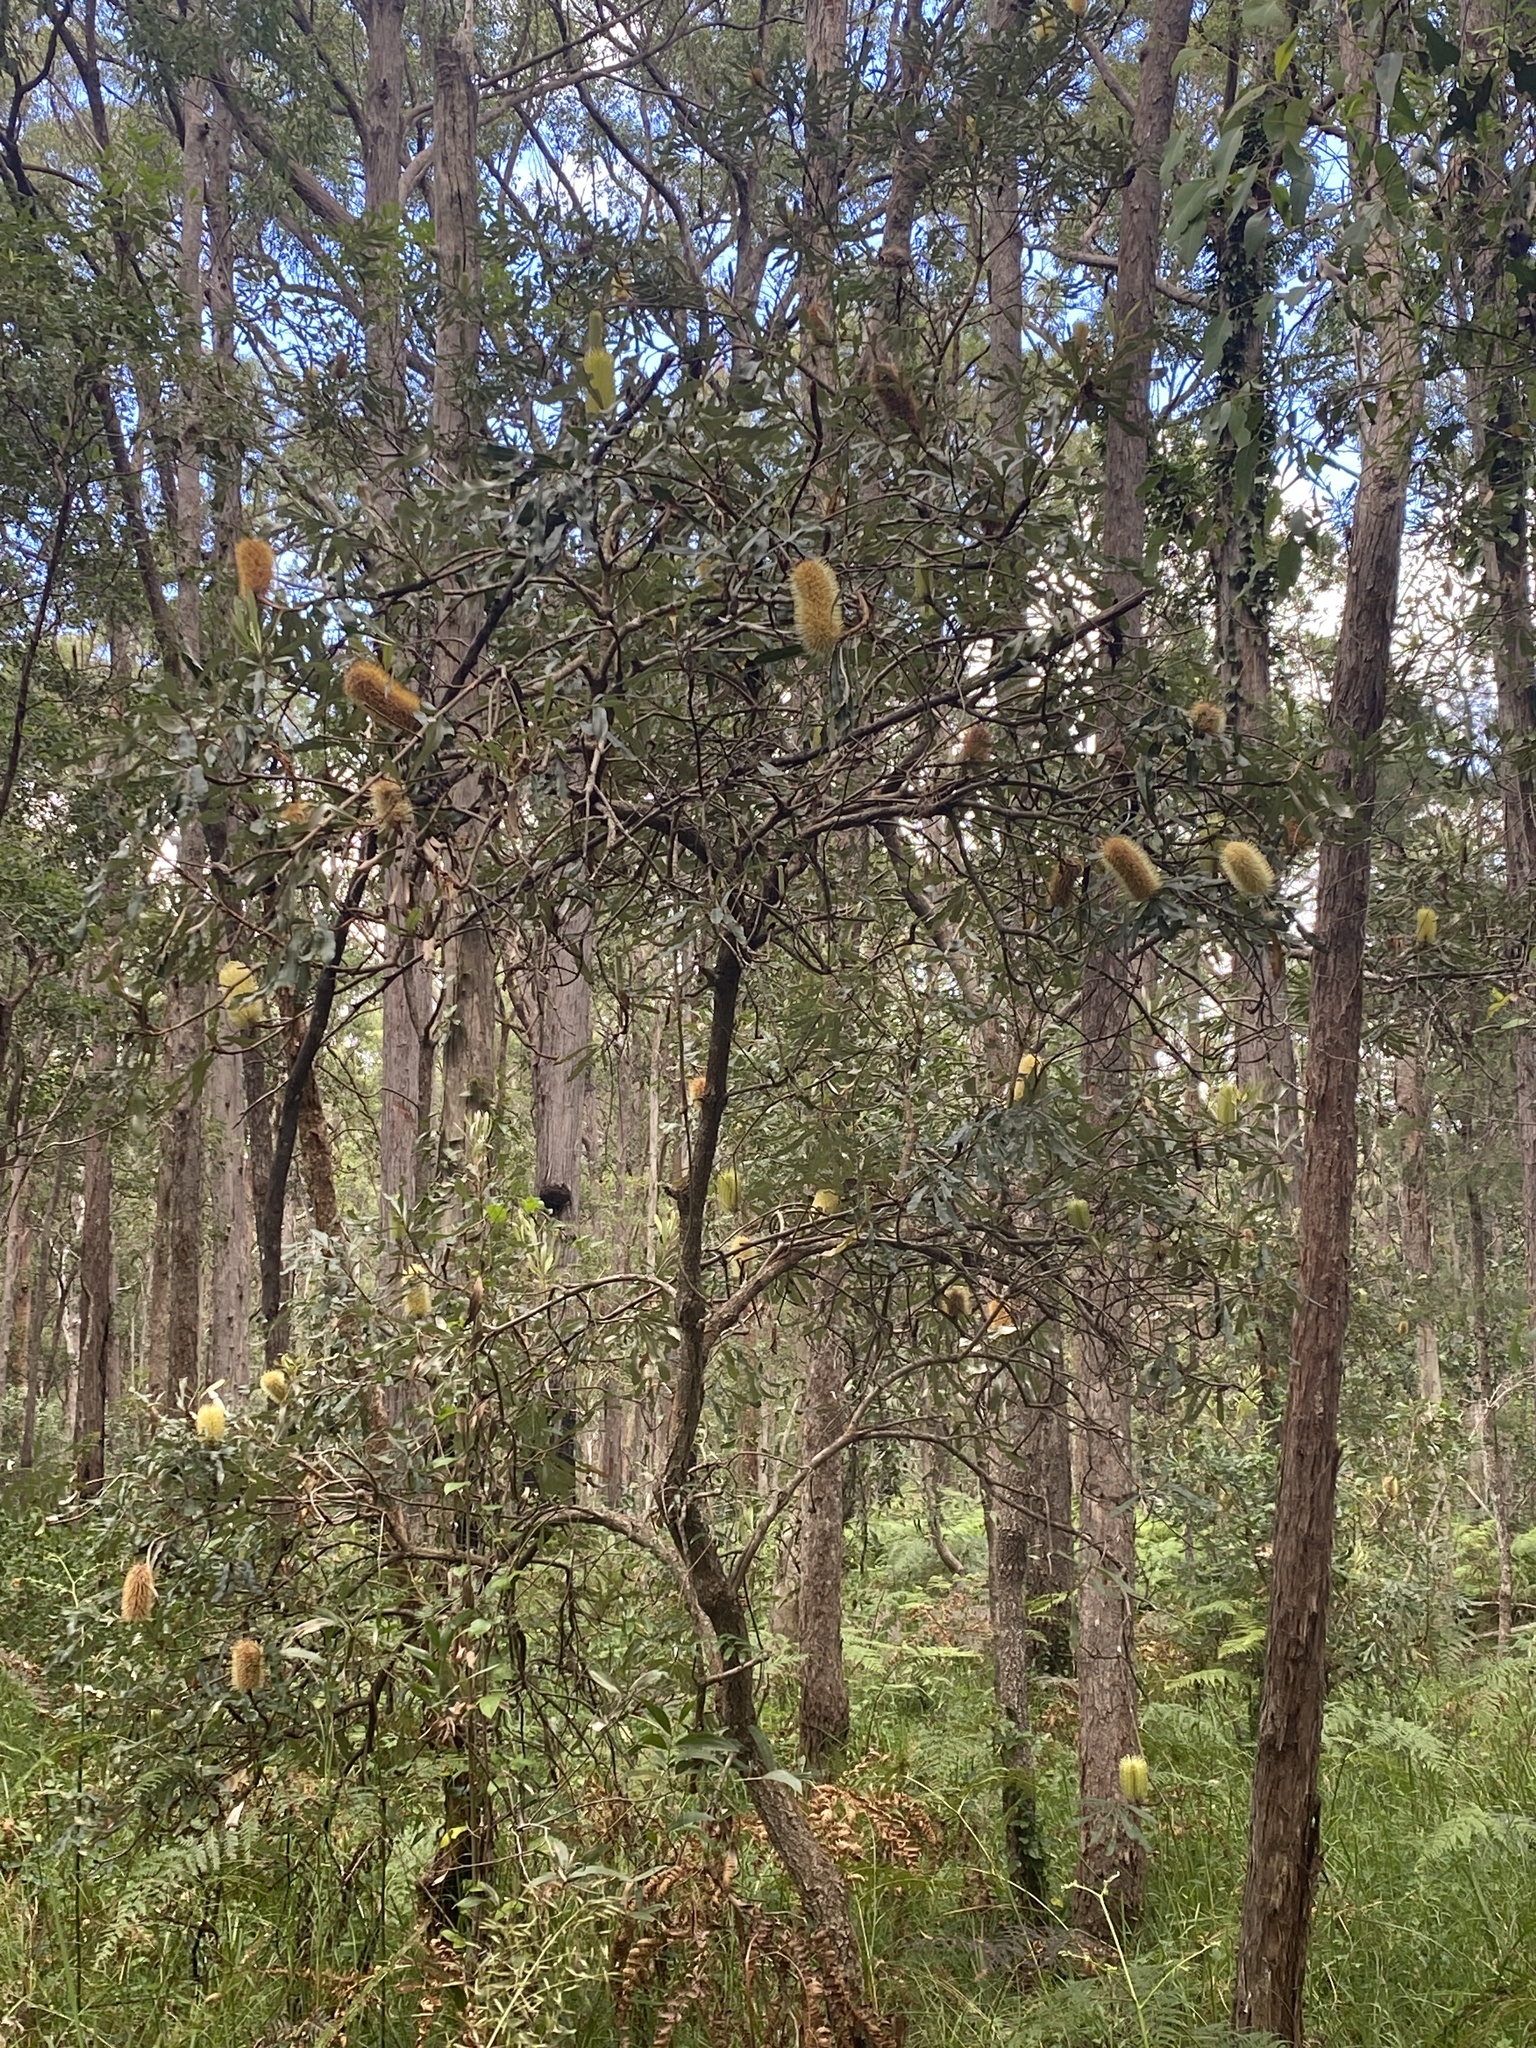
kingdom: Plantae
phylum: Tracheophyta
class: Magnoliopsida
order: Proteales
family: Proteaceae
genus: Banksia
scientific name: Banksia integrifolia
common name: White-honeysuckle
